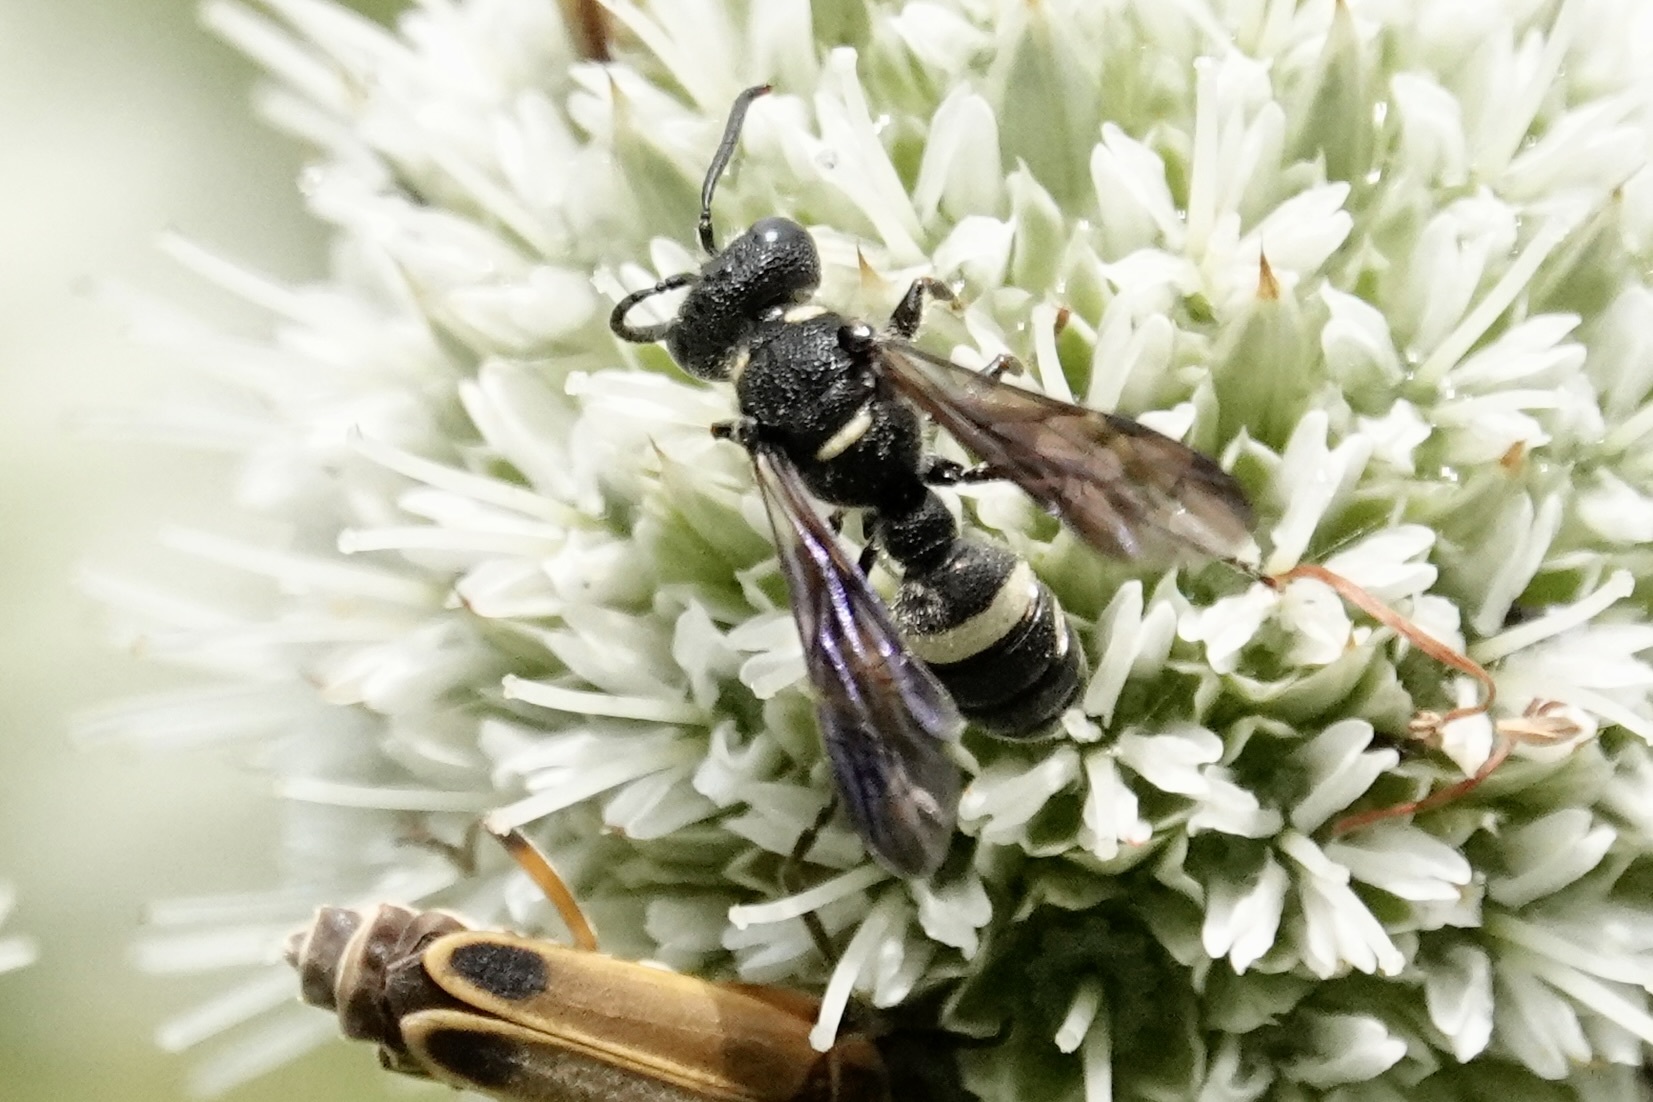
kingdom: Animalia
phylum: Arthropoda
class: Insecta
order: Hymenoptera
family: Crabronidae
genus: Cerceris
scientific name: Cerceris fumipennis
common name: Smokey-winged beetle bandit wasp
